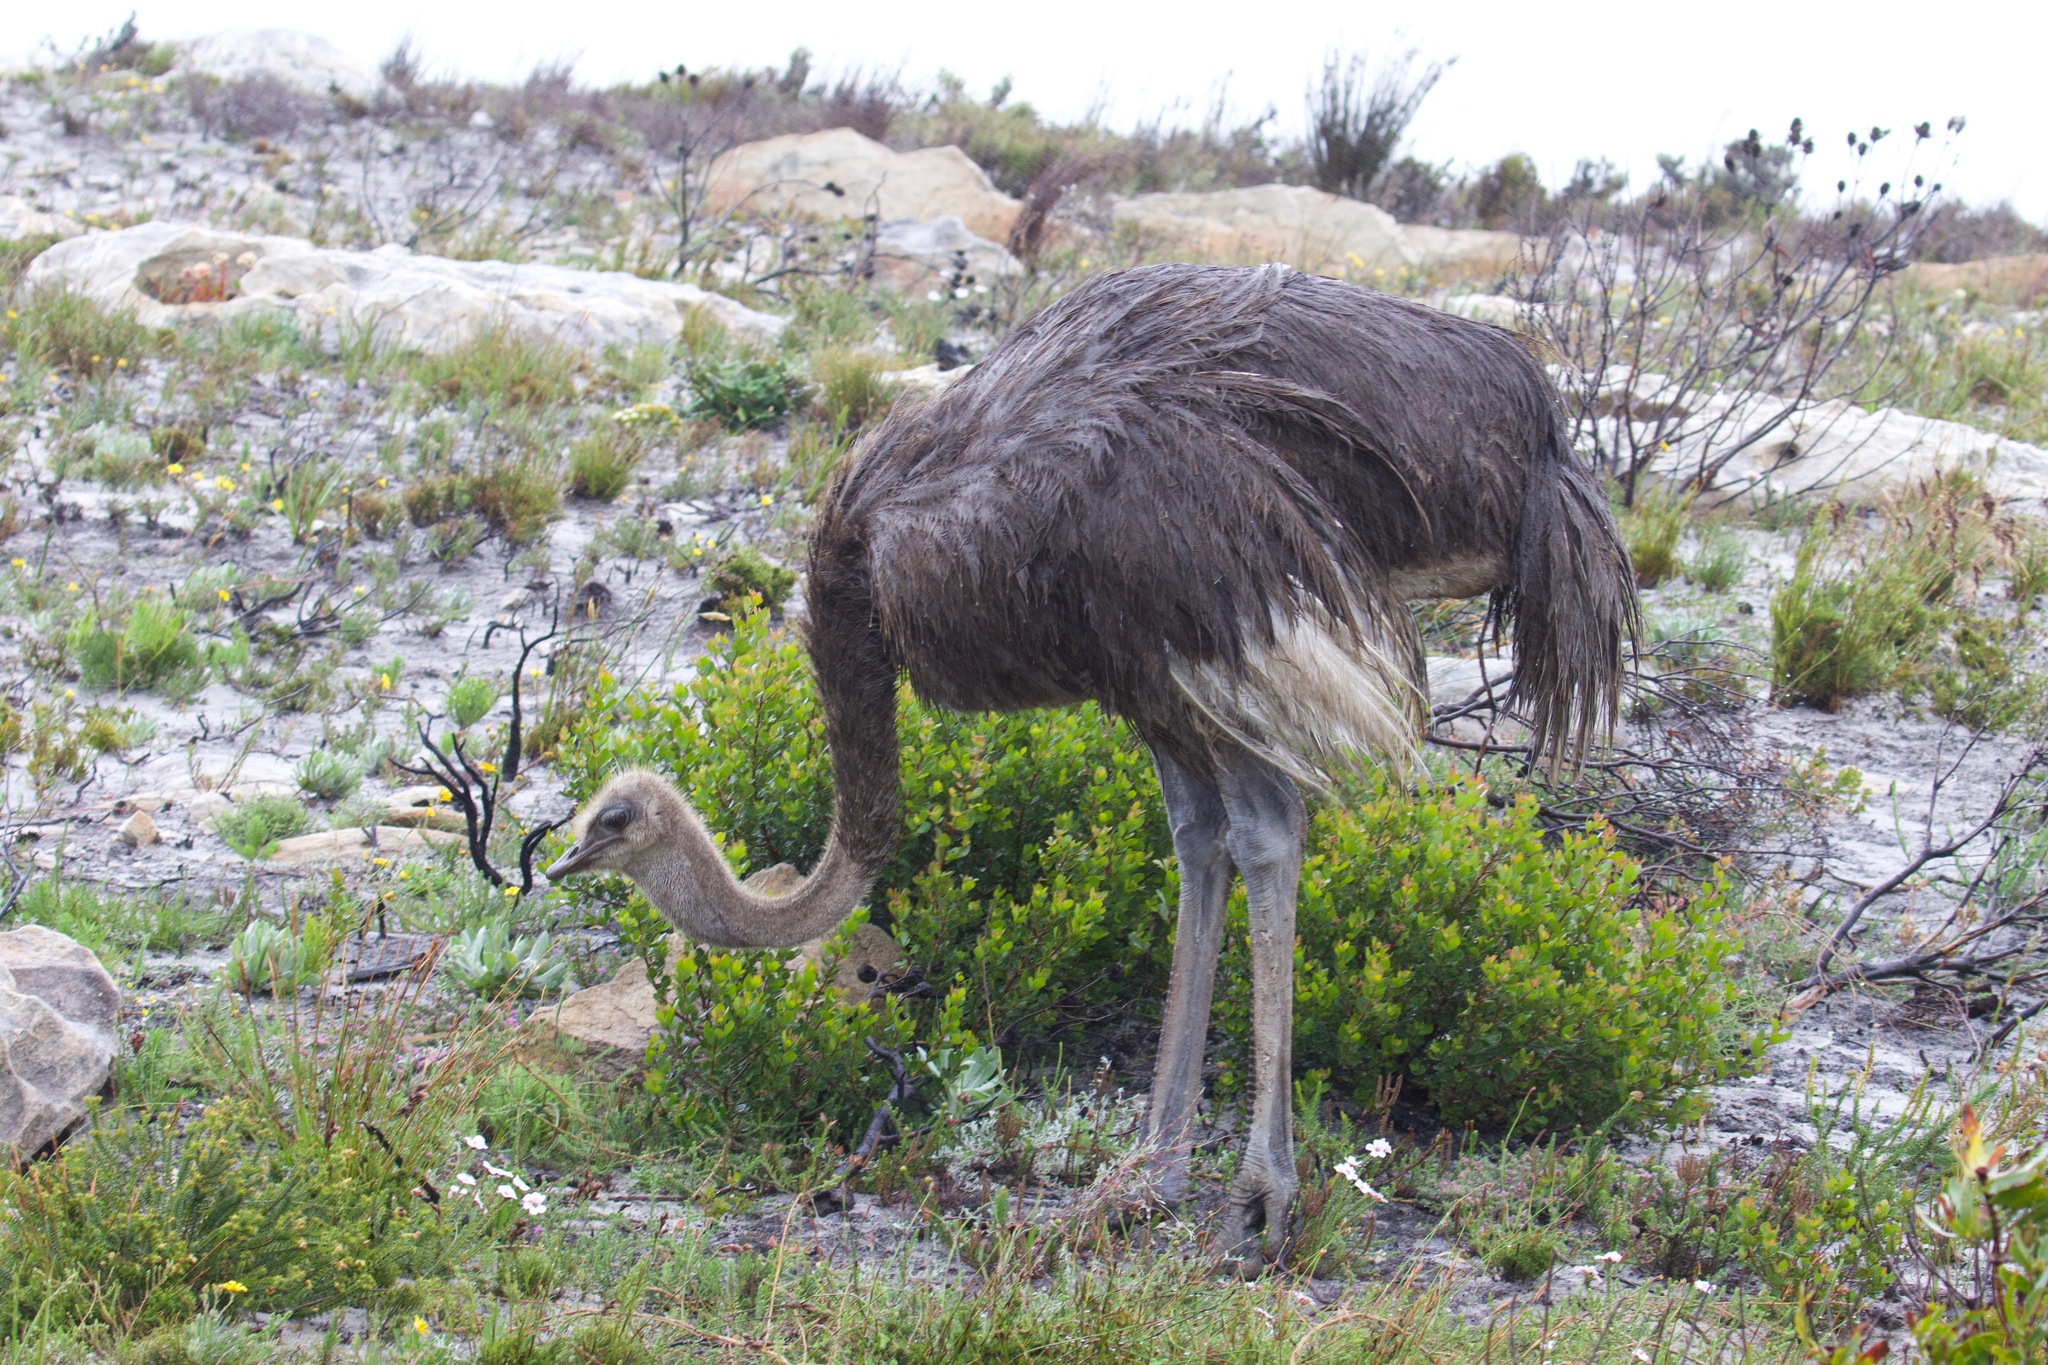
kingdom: Animalia
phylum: Chordata
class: Aves
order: Struthioniformes
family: Struthionidae
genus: Struthio
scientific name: Struthio camelus
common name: Common ostrich
